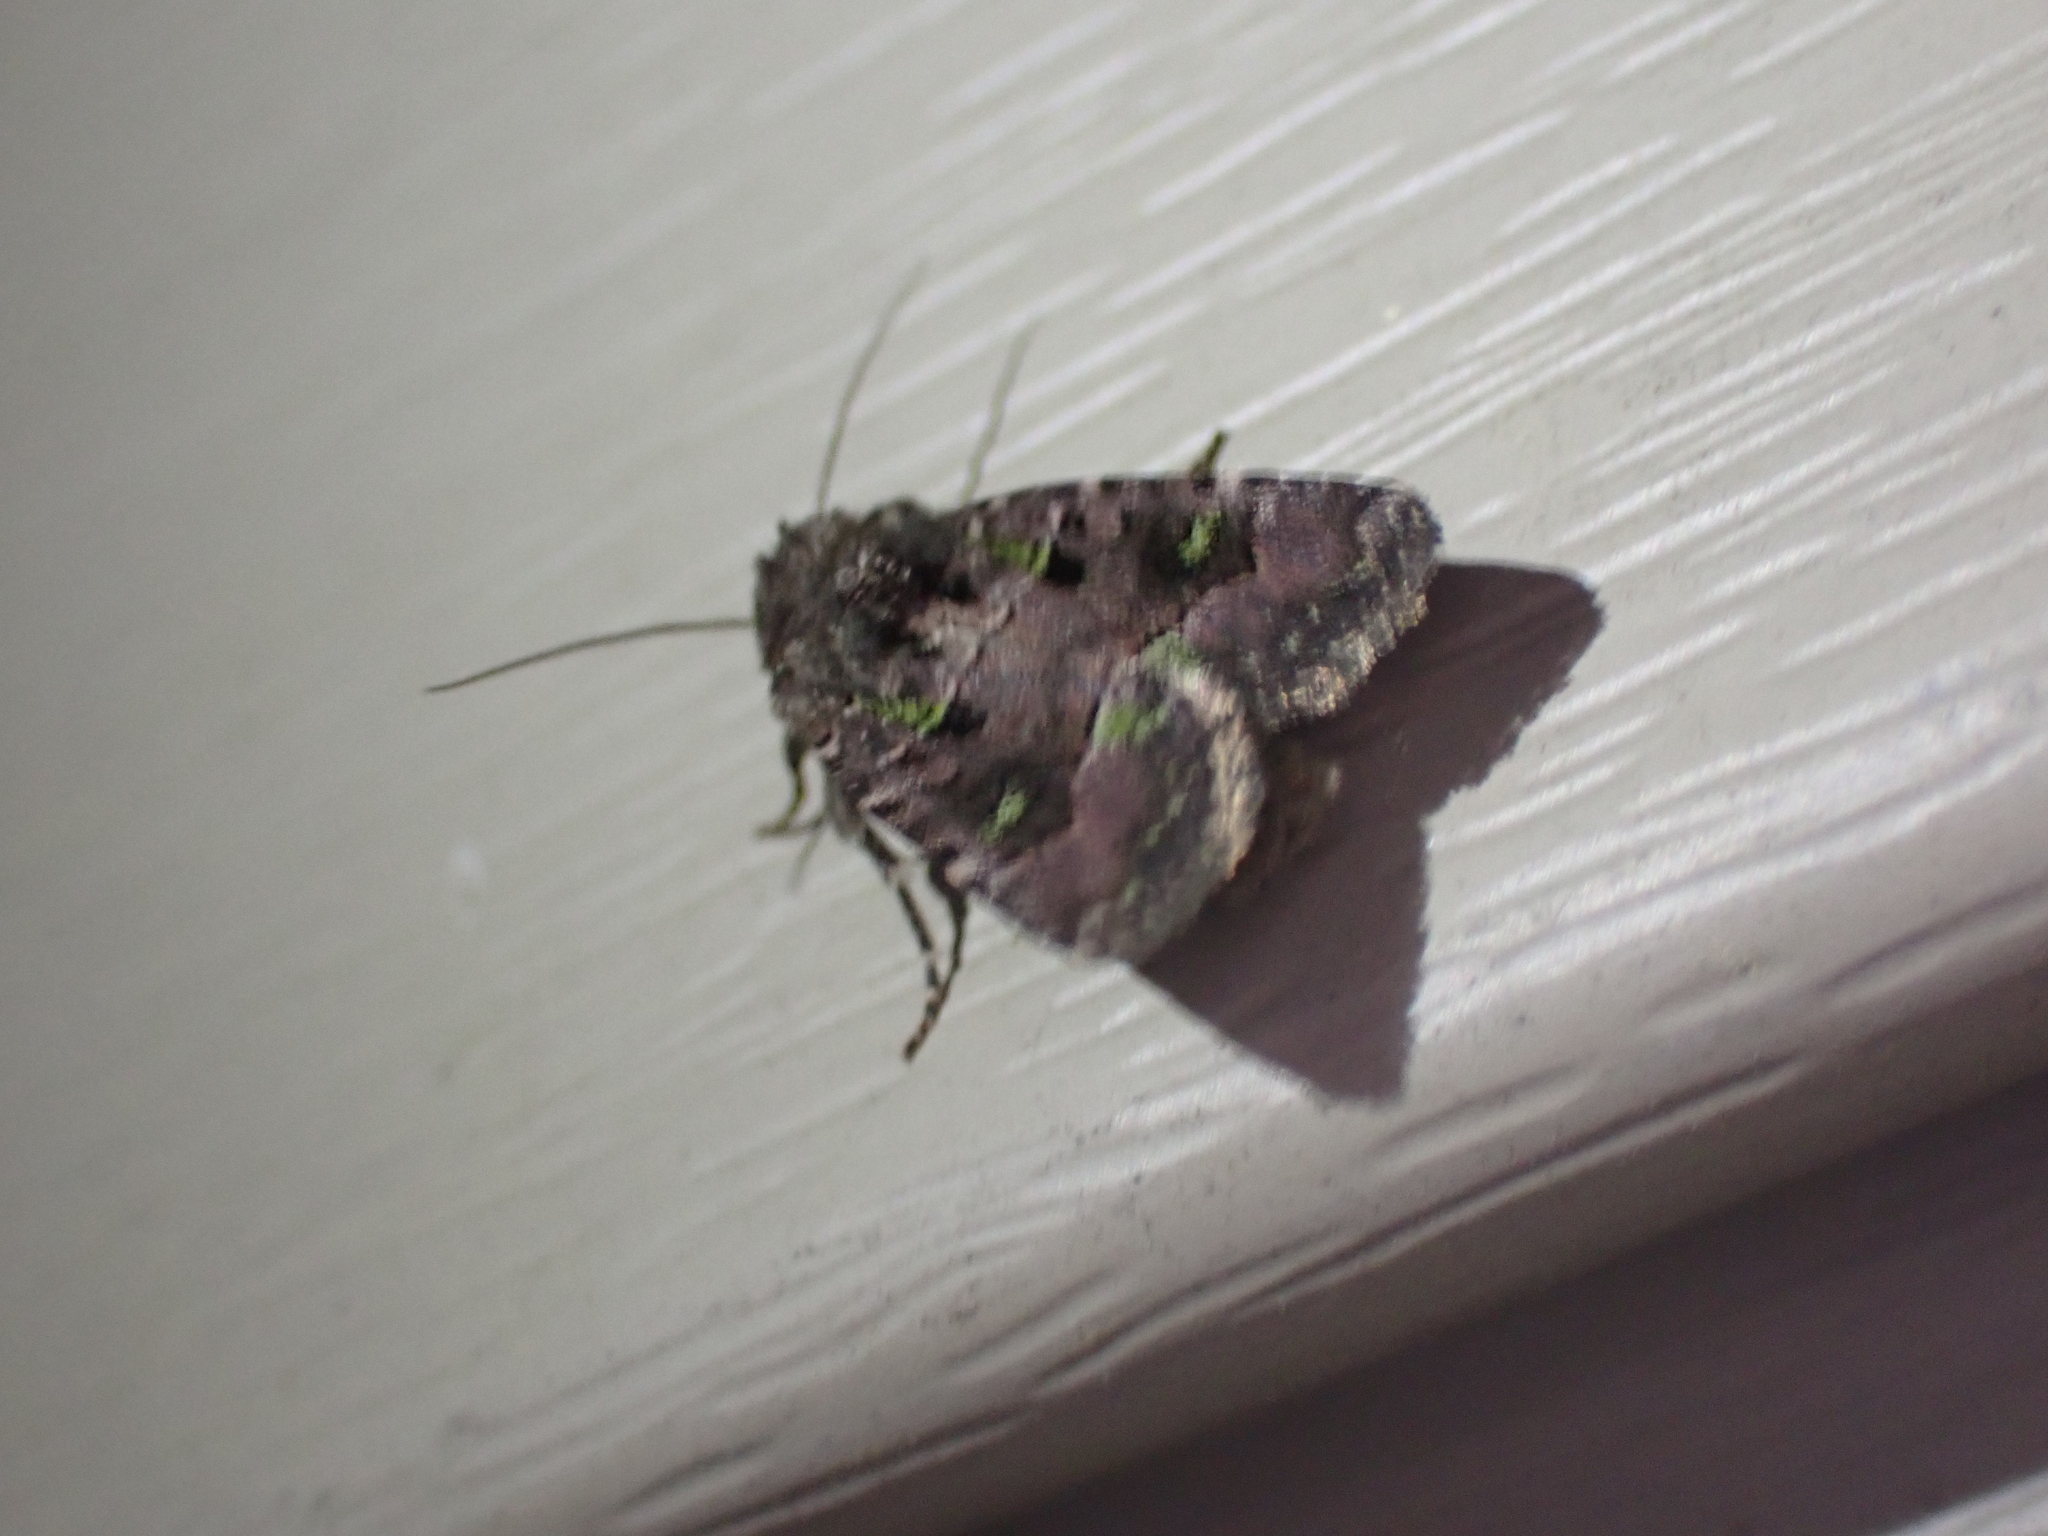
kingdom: Animalia
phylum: Arthropoda
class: Insecta
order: Lepidoptera
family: Noctuidae
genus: Lacinipolia
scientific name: Lacinipolia renigera
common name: Kidney-spotted minor
